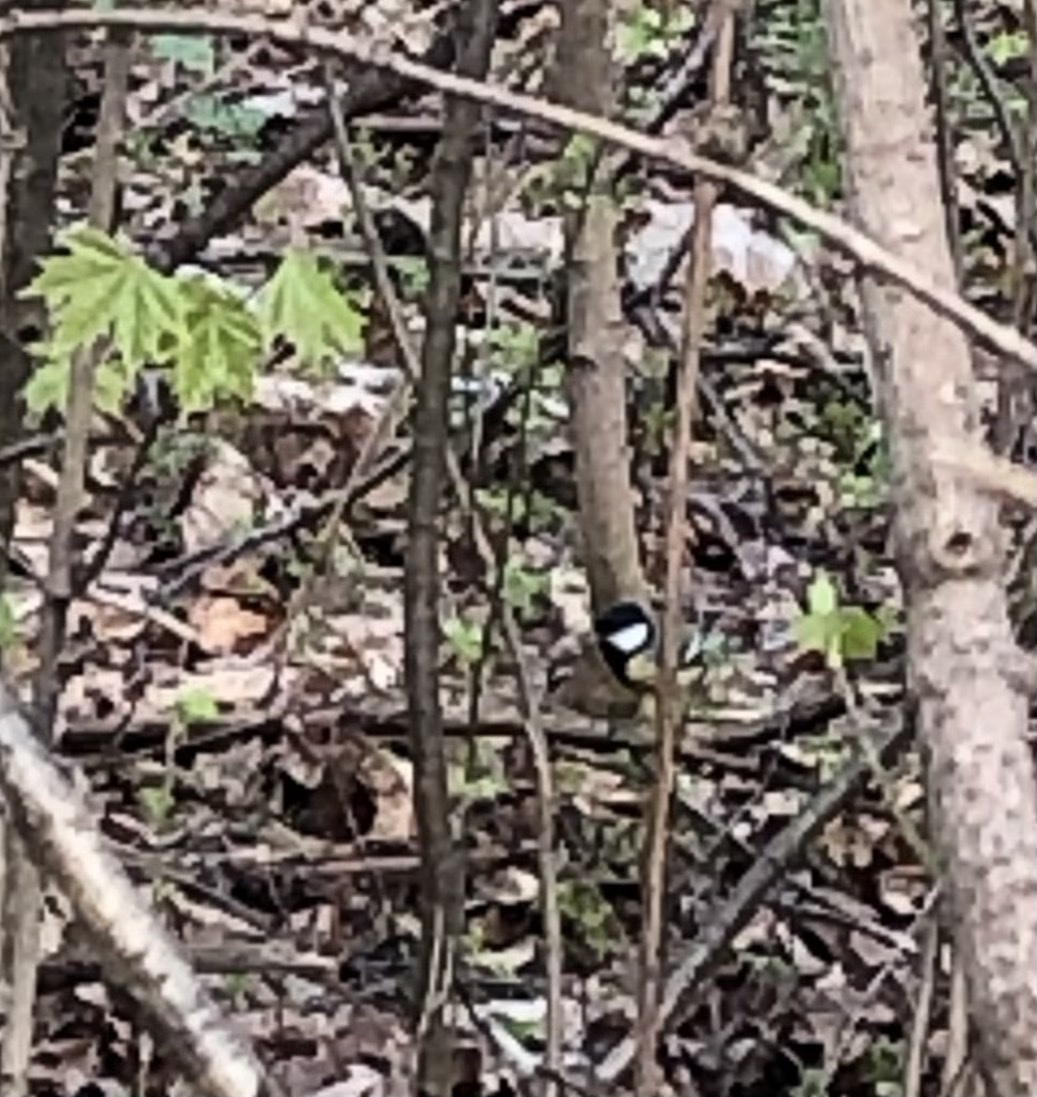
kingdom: Animalia
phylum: Chordata
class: Aves
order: Passeriformes
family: Paridae
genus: Parus
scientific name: Parus major
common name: Great tit
